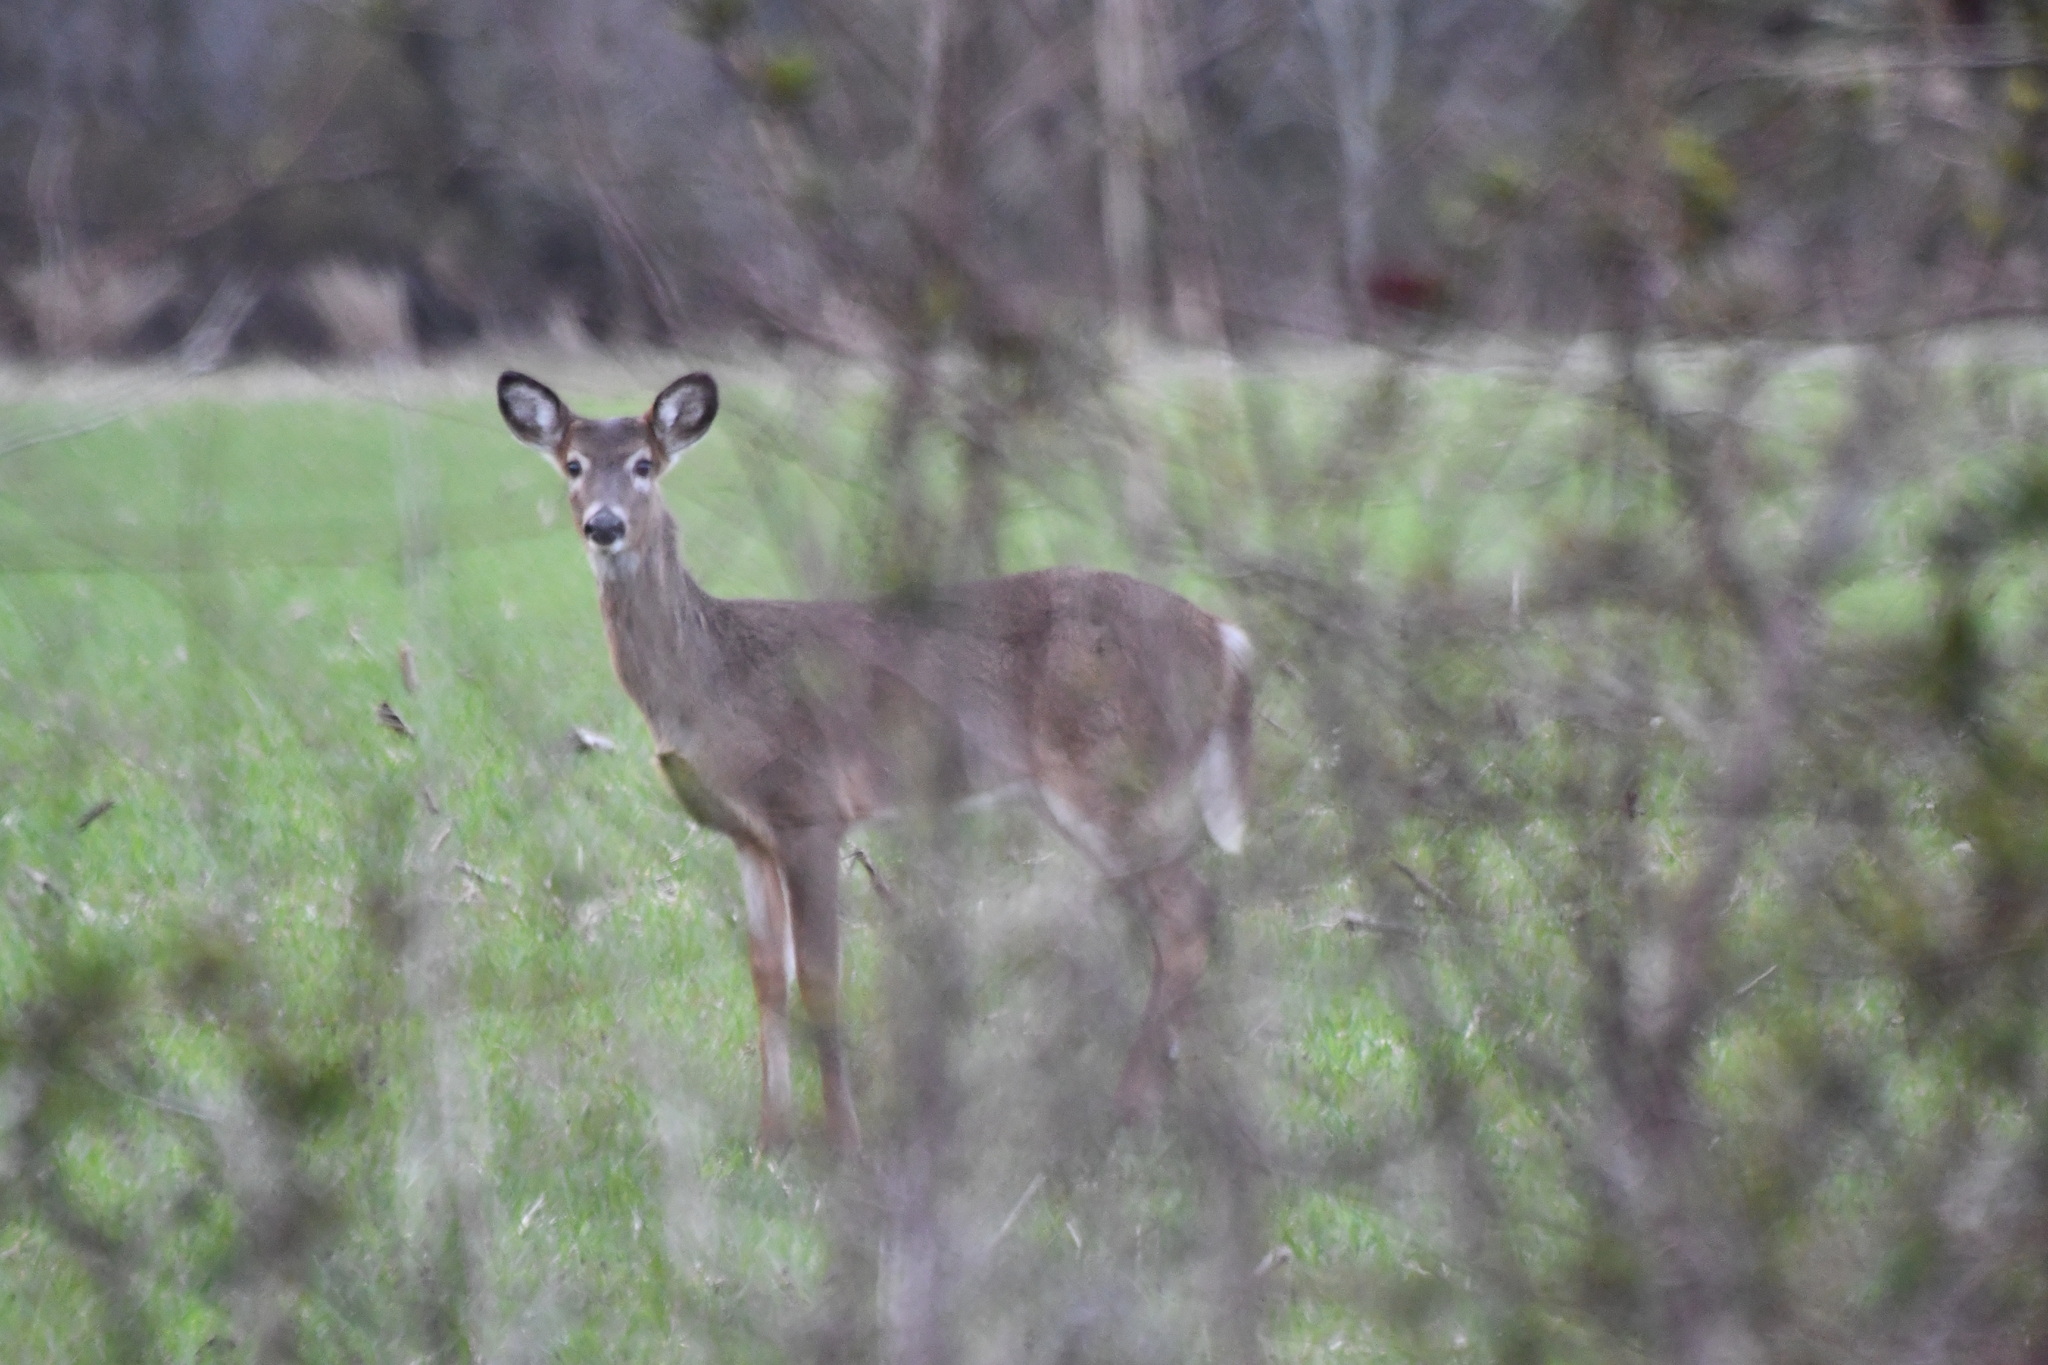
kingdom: Animalia
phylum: Chordata
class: Mammalia
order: Artiodactyla
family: Cervidae
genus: Odocoileus
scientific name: Odocoileus virginianus
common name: White-tailed deer
